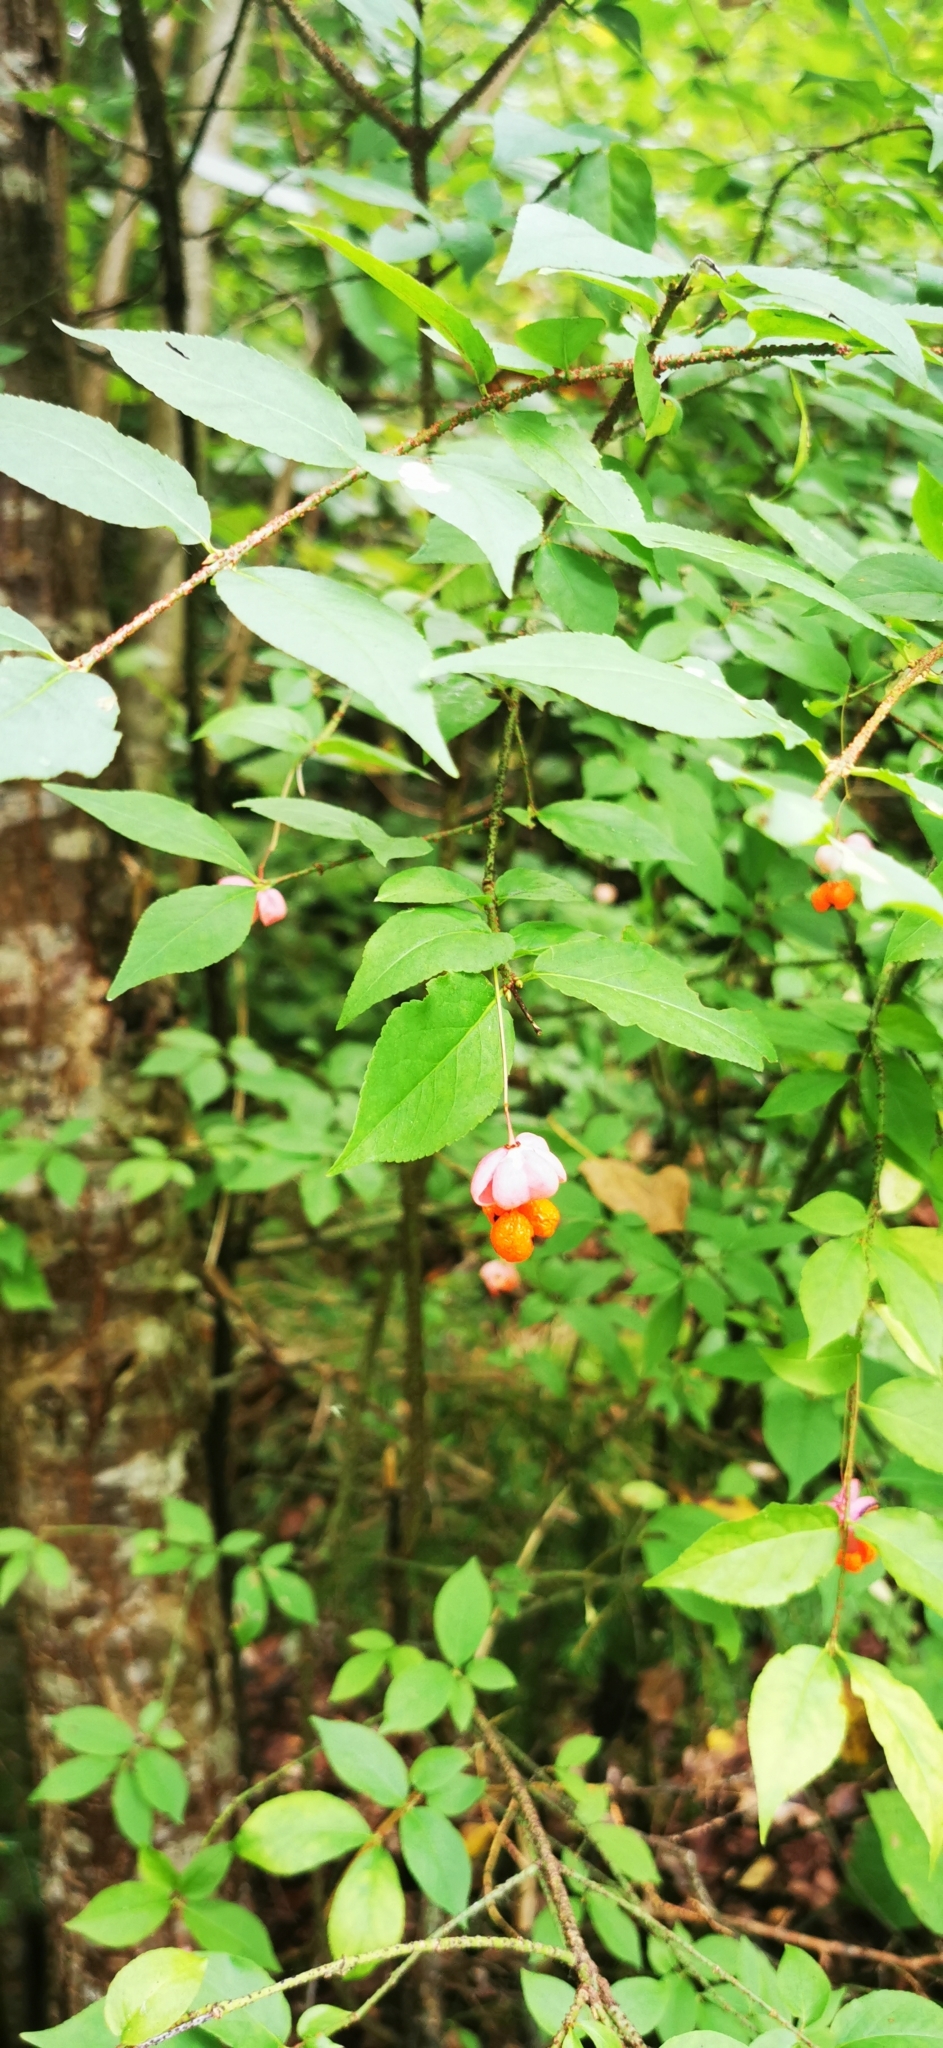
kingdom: Plantae
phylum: Tracheophyta
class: Magnoliopsida
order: Celastrales
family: Celastraceae
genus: Euonymus
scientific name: Euonymus verrucosus
